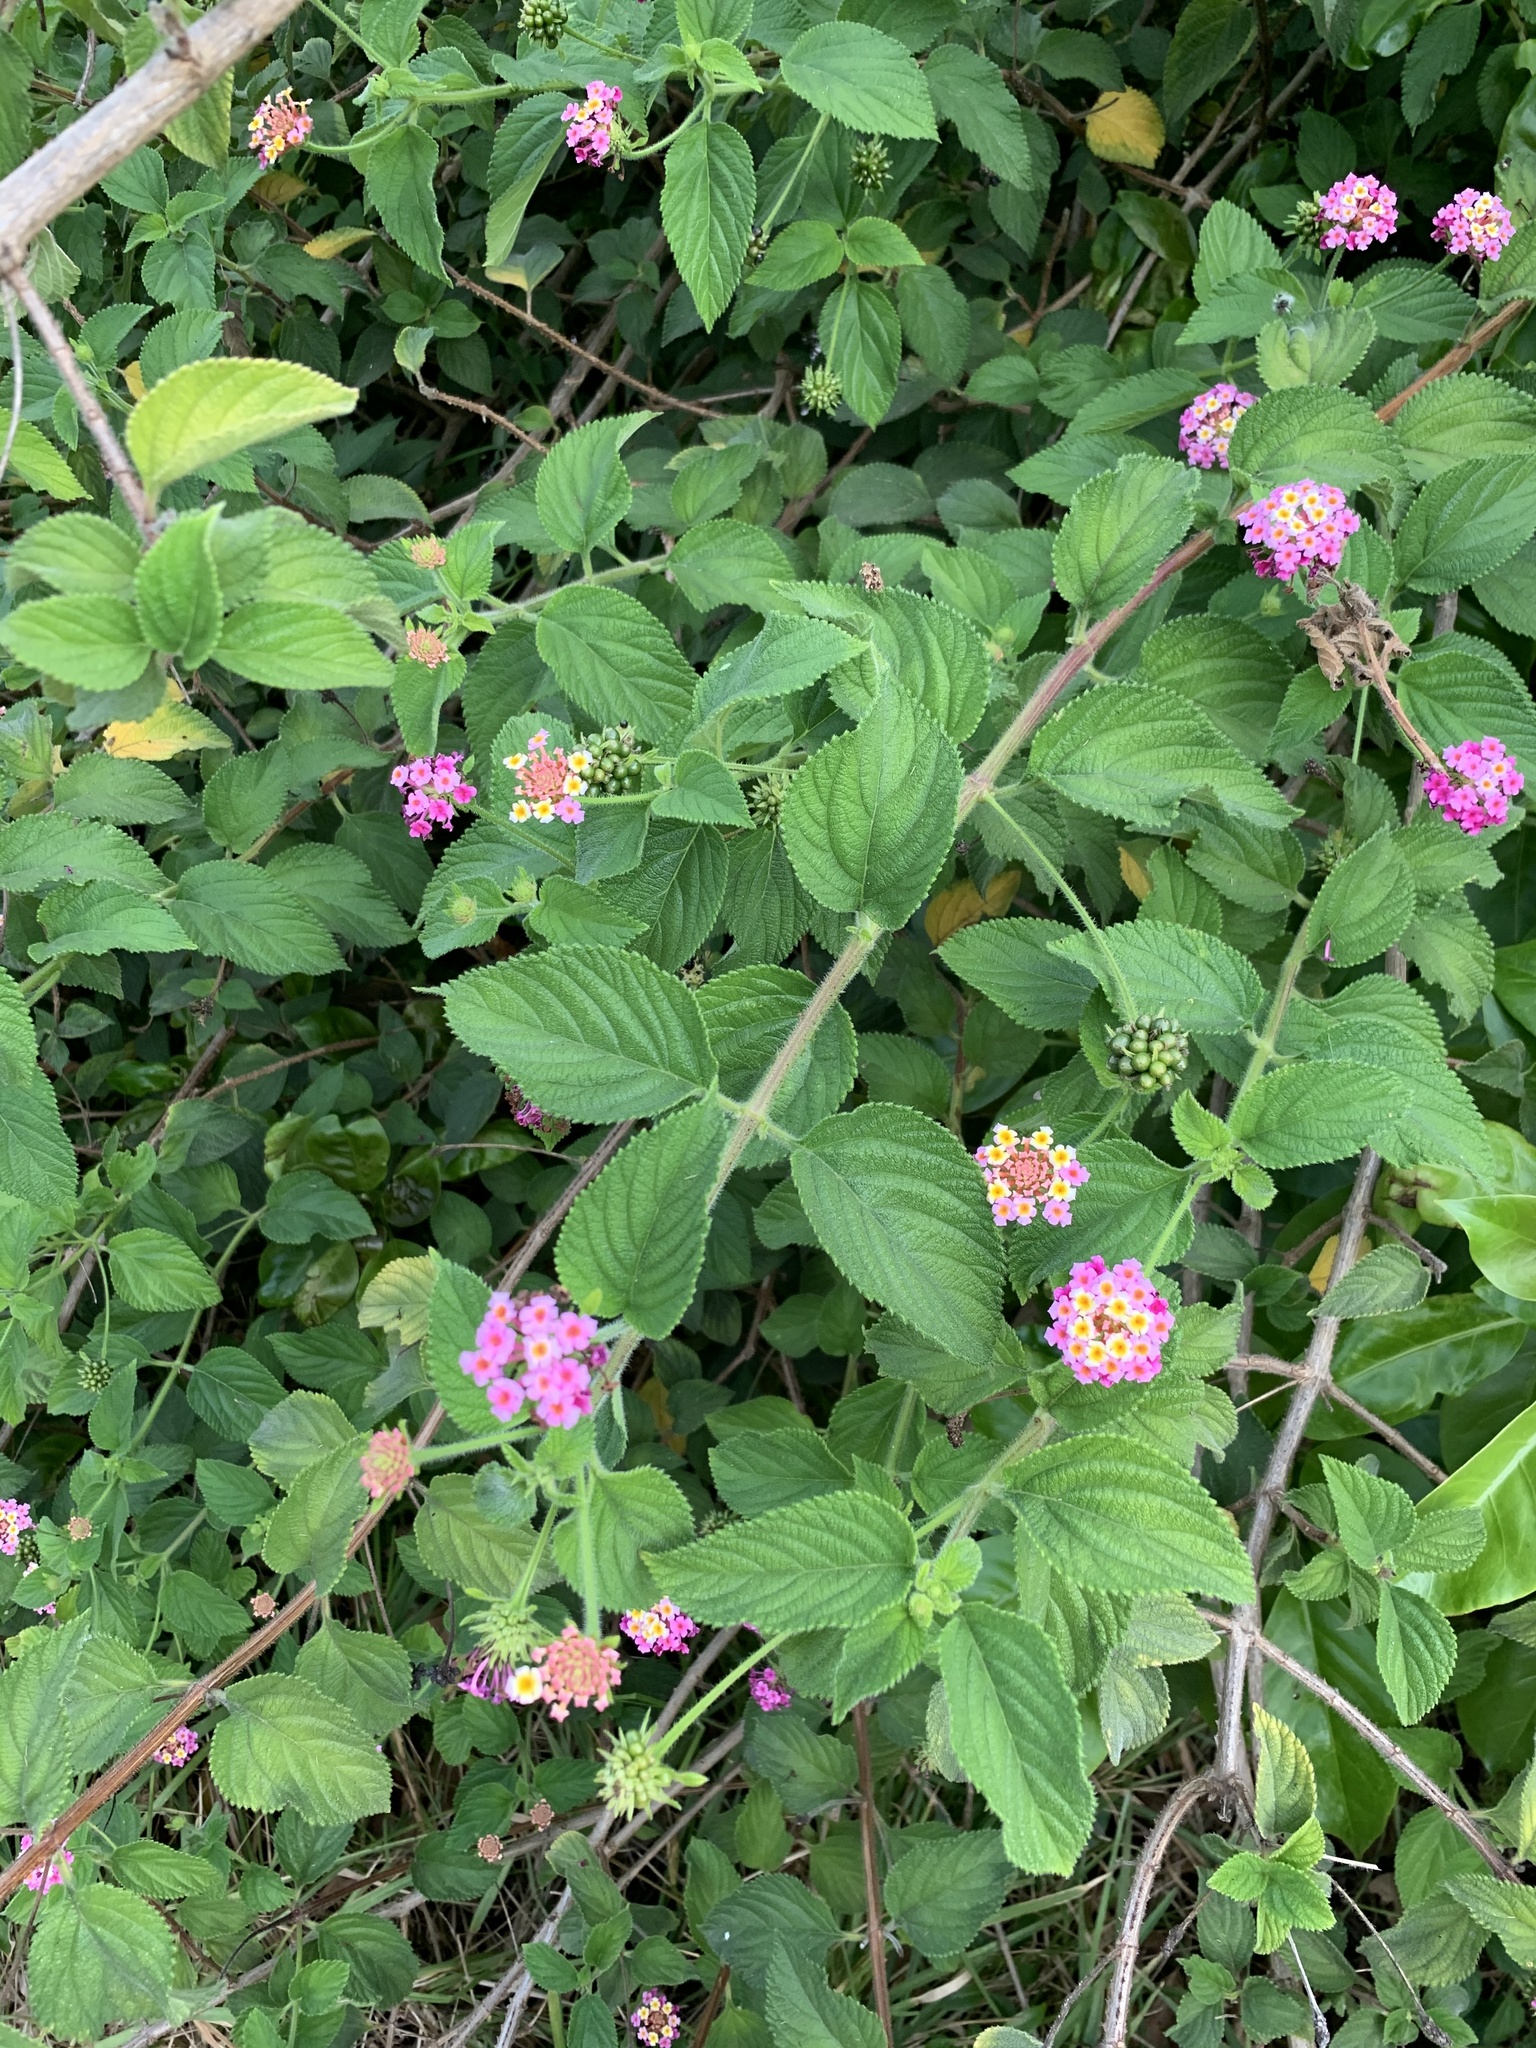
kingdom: Plantae
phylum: Tracheophyta
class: Magnoliopsida
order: Lamiales
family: Verbenaceae
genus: Lantana
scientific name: Lantana camara
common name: Lantana
